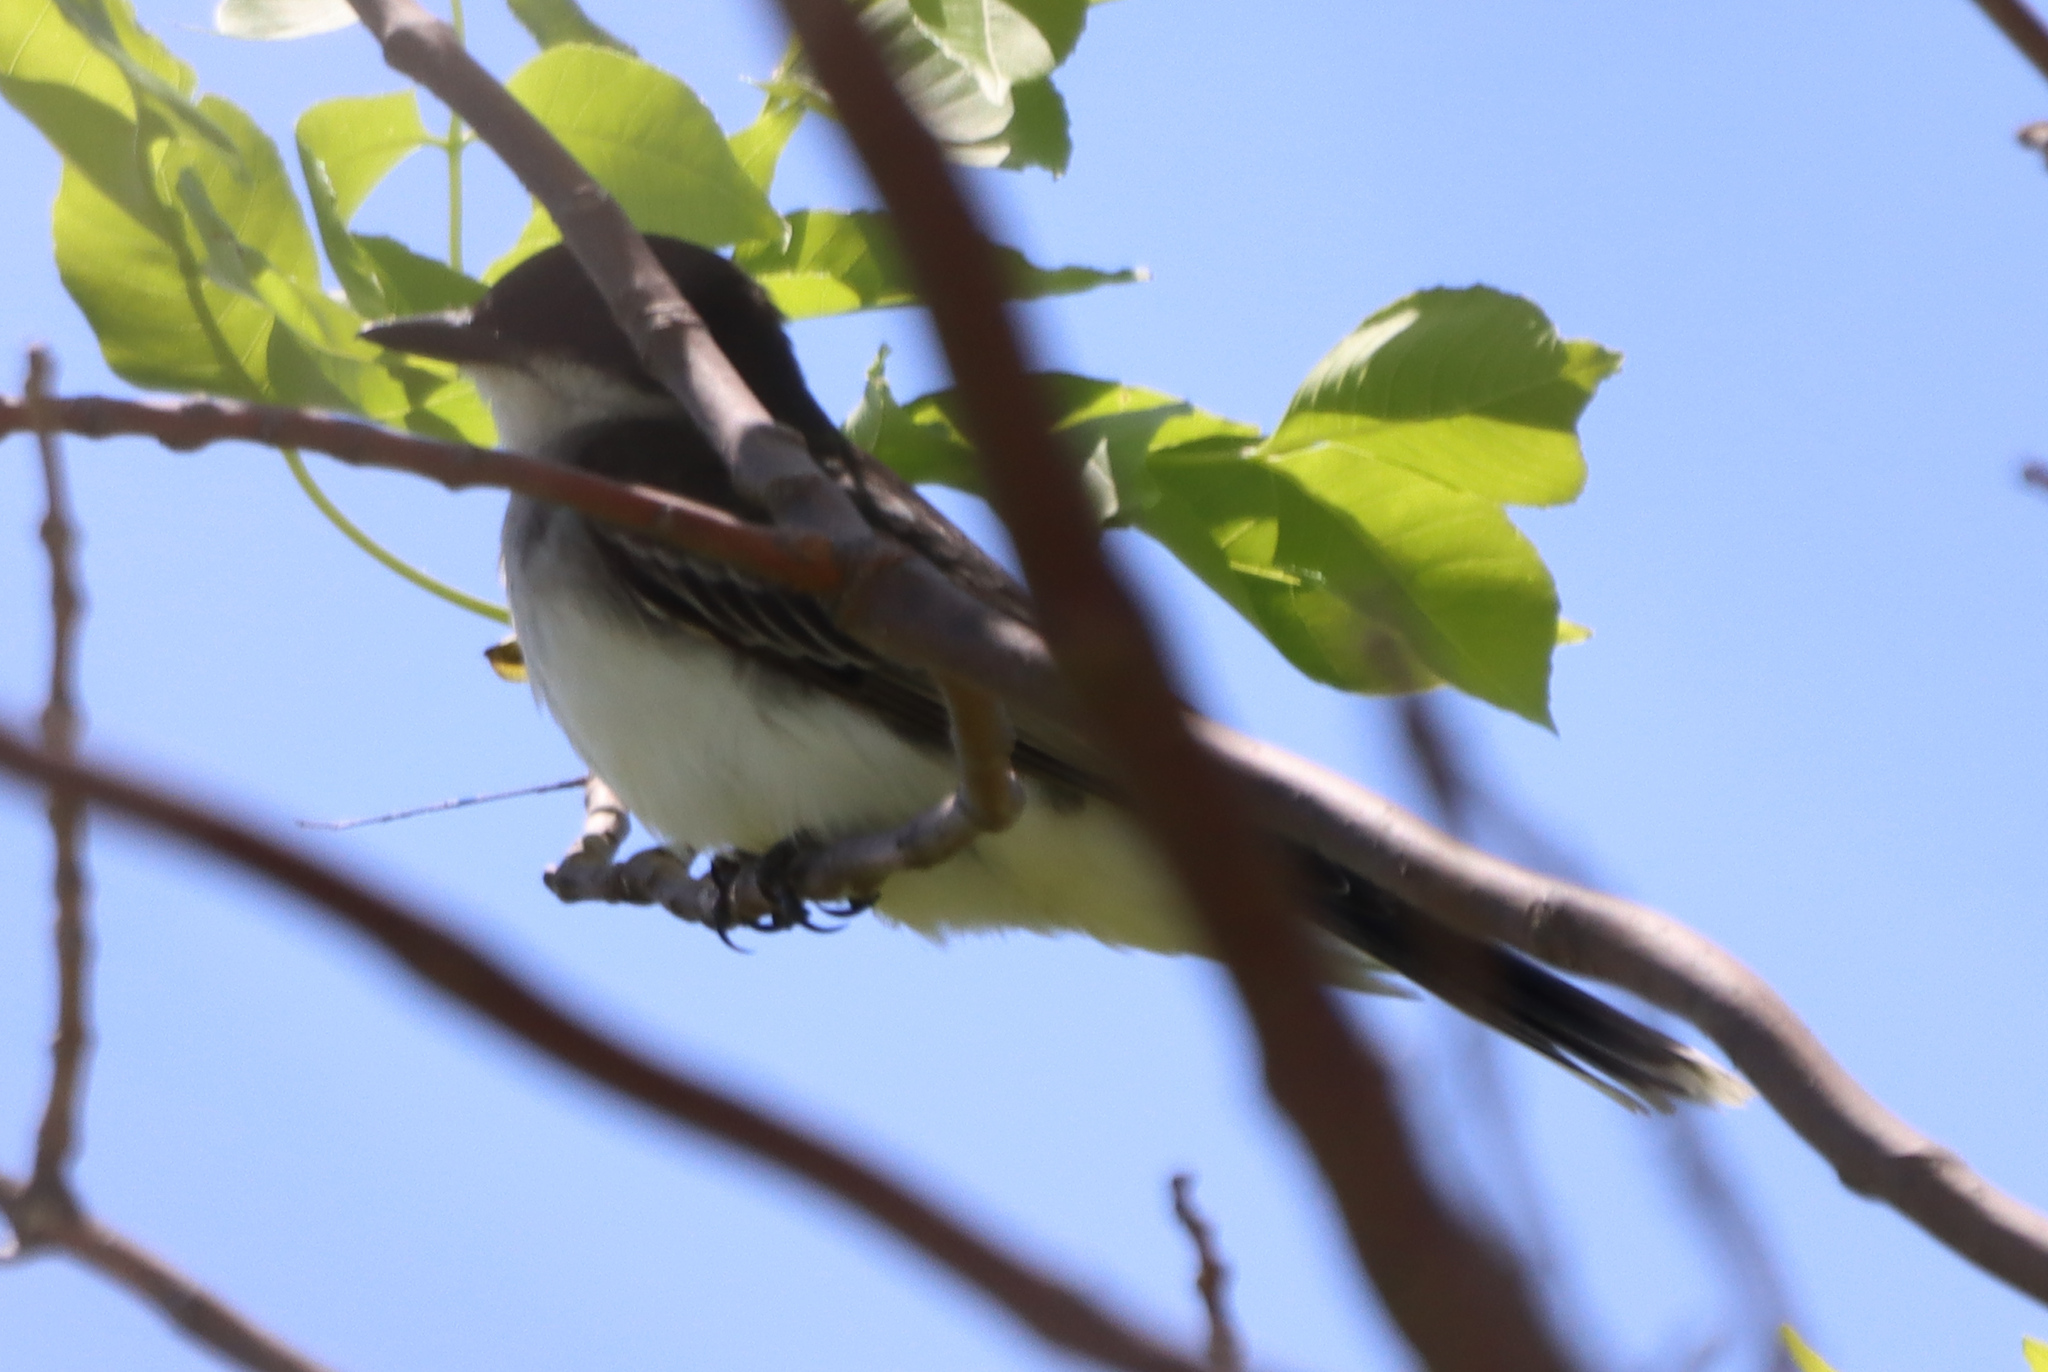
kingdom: Animalia
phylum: Chordata
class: Aves
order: Passeriformes
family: Tyrannidae
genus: Tyrannus
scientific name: Tyrannus tyrannus
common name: Eastern kingbird
